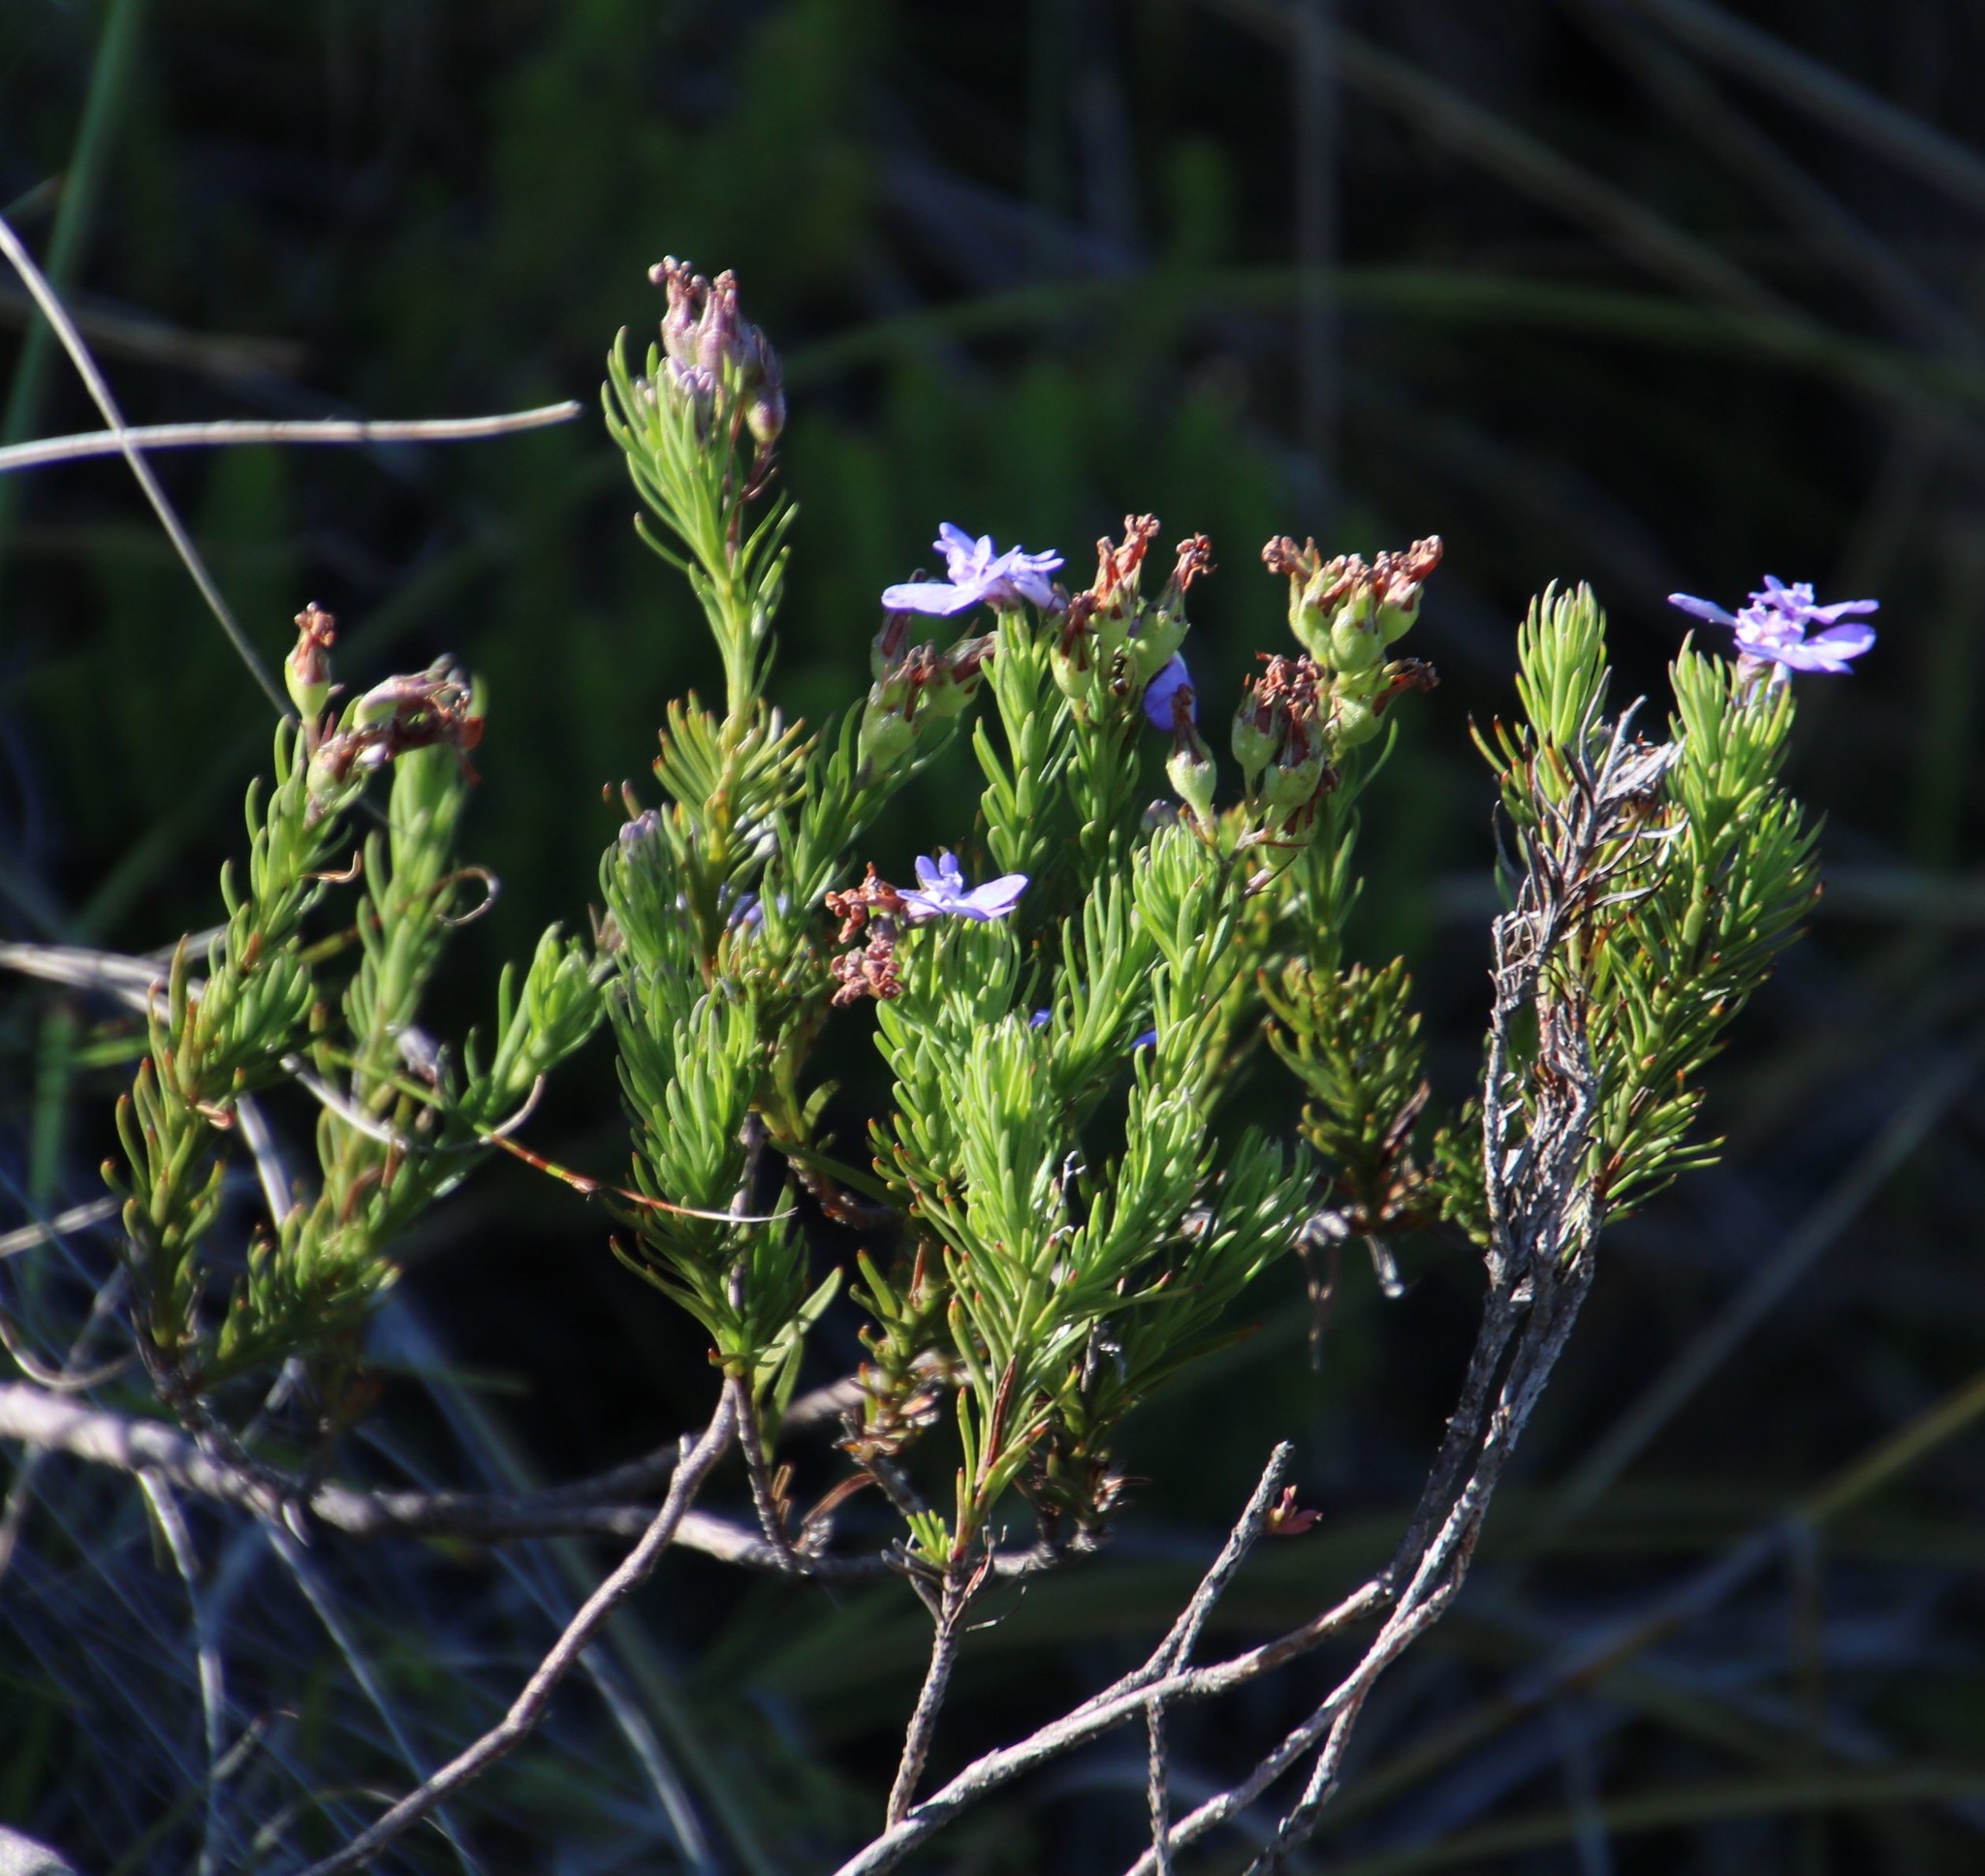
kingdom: Plantae
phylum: Tracheophyta
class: Magnoliopsida
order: Asterales
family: Campanulaceae
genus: Lobelia
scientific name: Lobelia pinifolia
